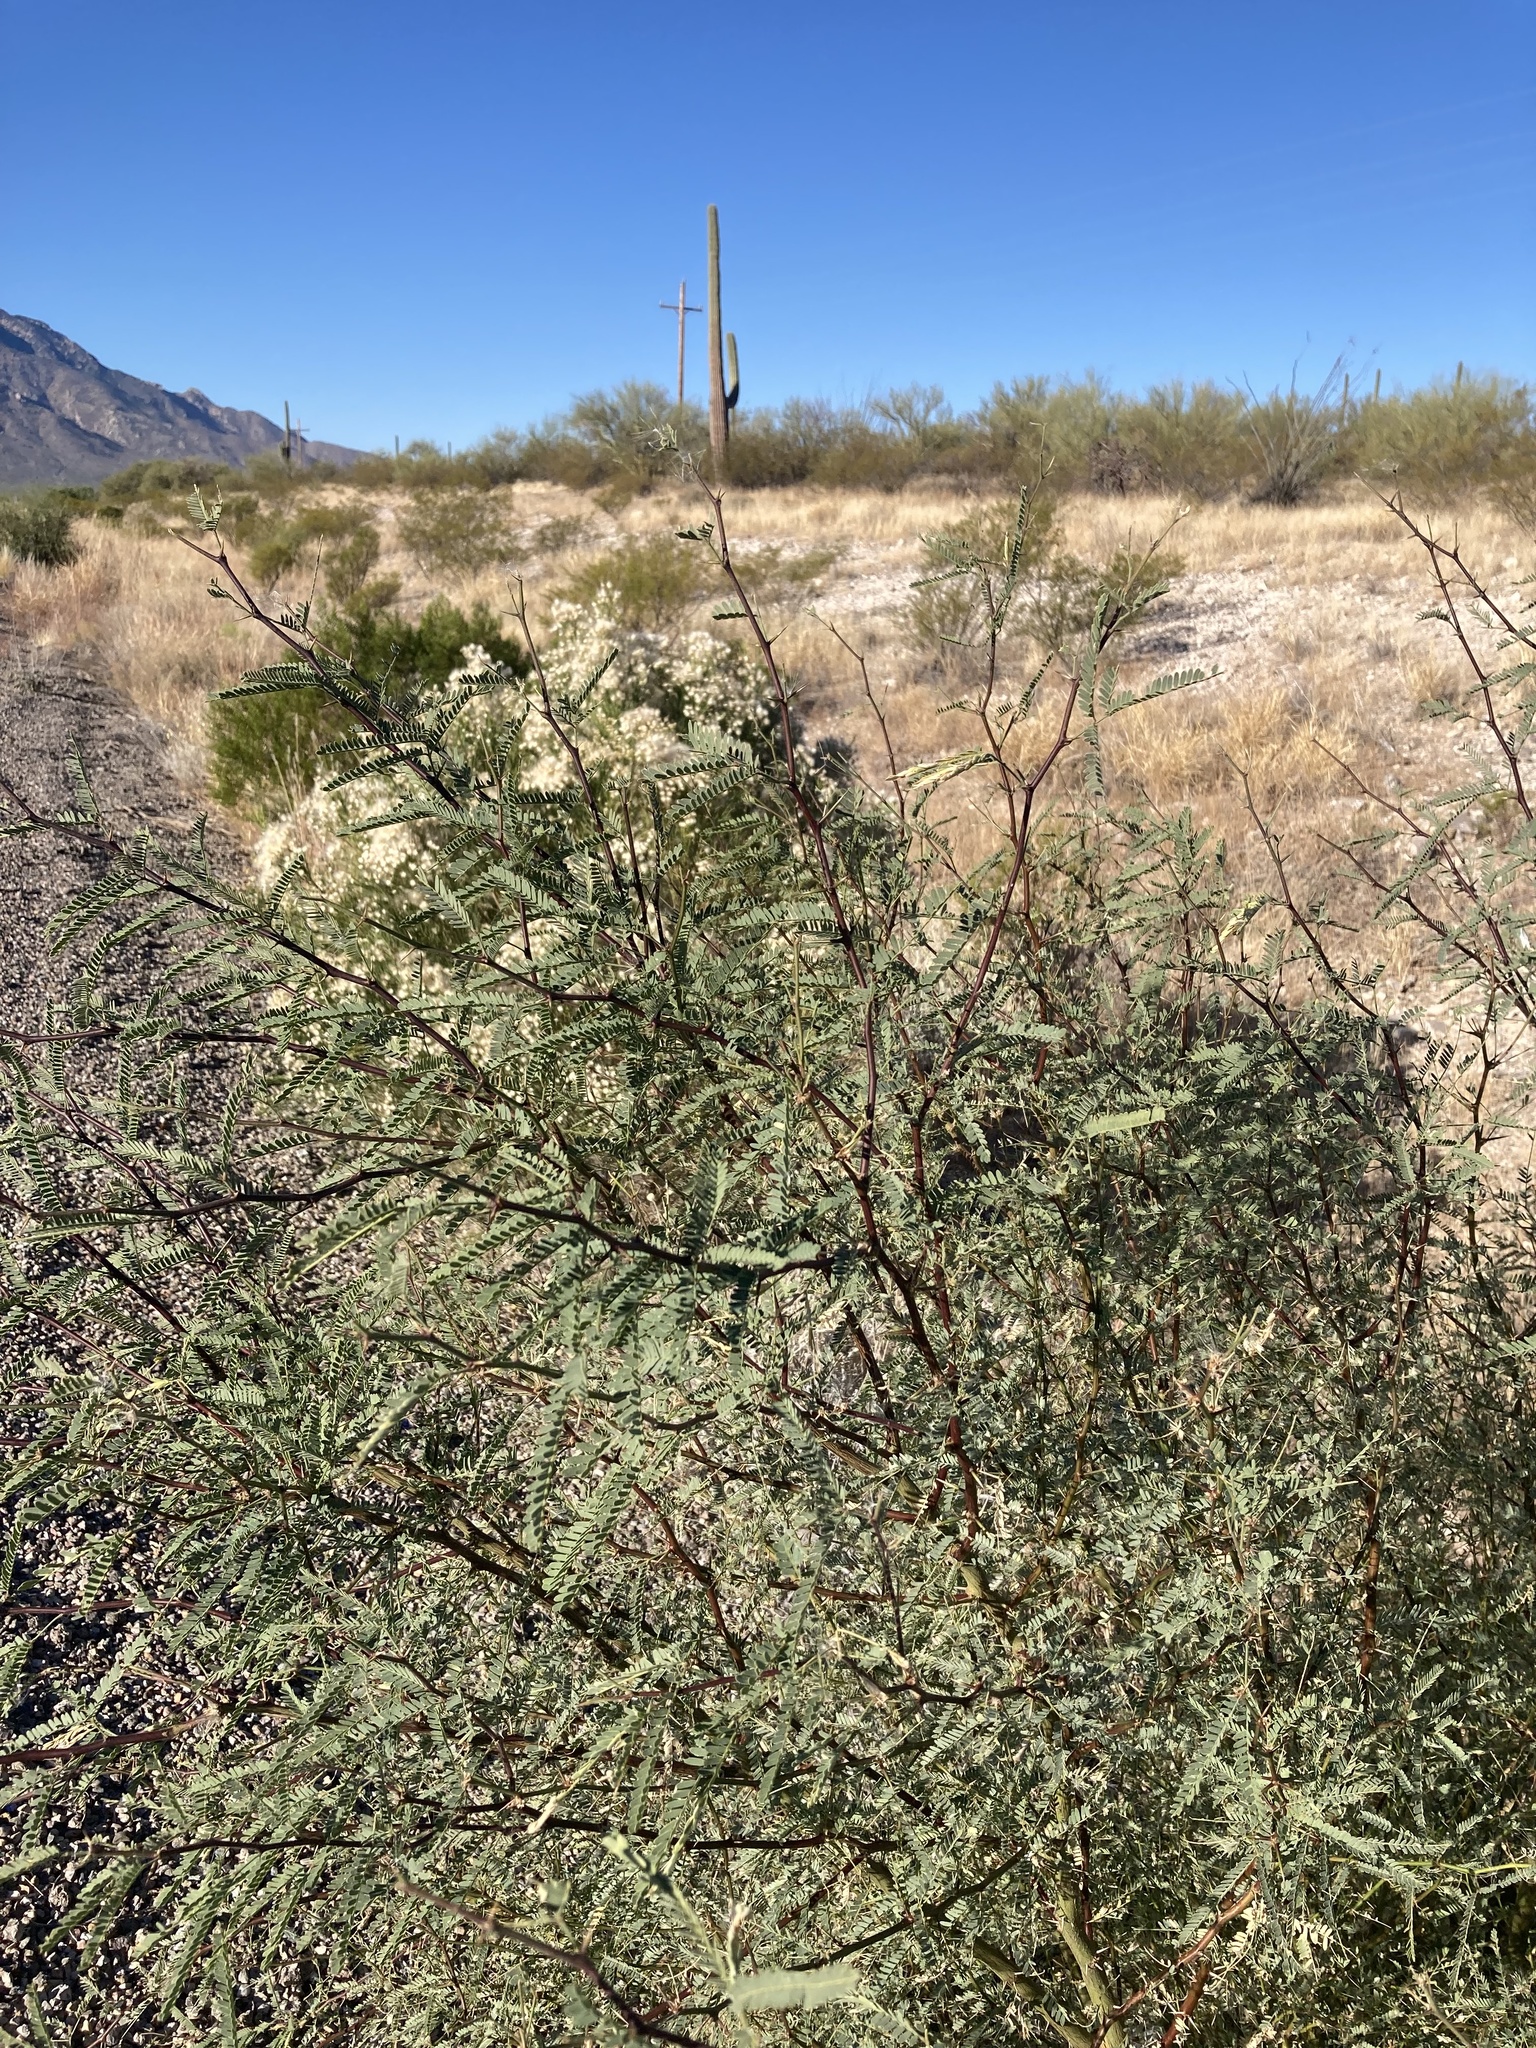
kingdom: Plantae
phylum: Tracheophyta
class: Magnoliopsida
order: Fabales
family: Fabaceae
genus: Prosopis
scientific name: Prosopis velutina
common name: Velvet mesquite
